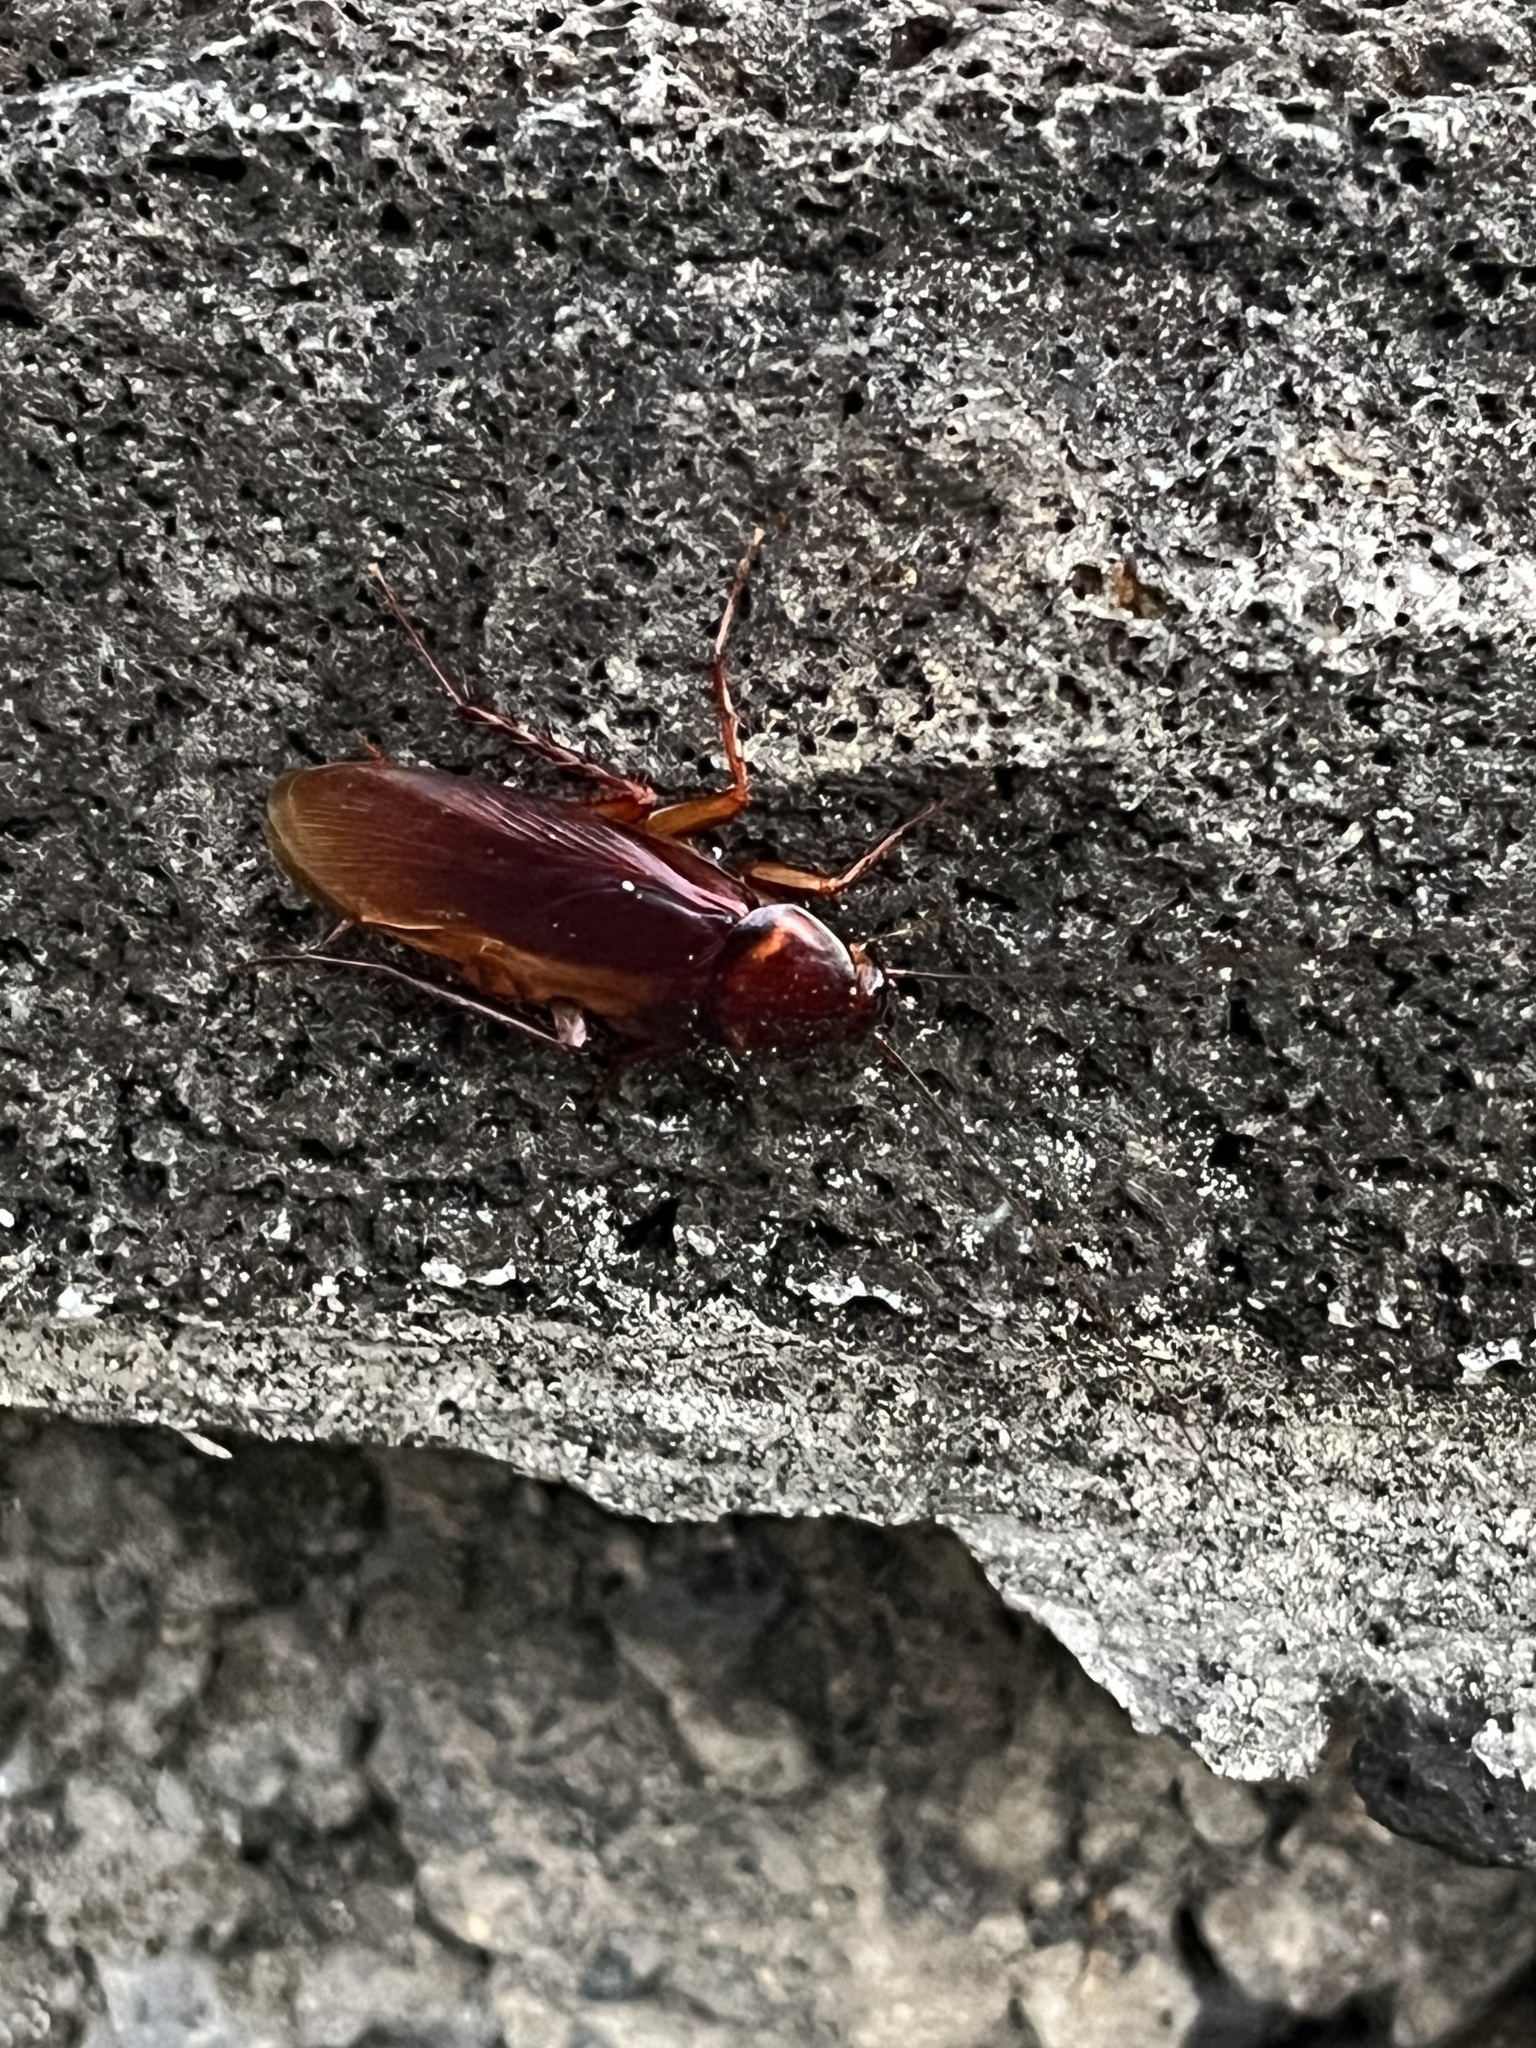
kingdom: Animalia
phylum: Arthropoda
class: Insecta
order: Blattodea
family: Blattidae
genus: Periplaneta
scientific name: Periplaneta americana
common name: American cockroach
